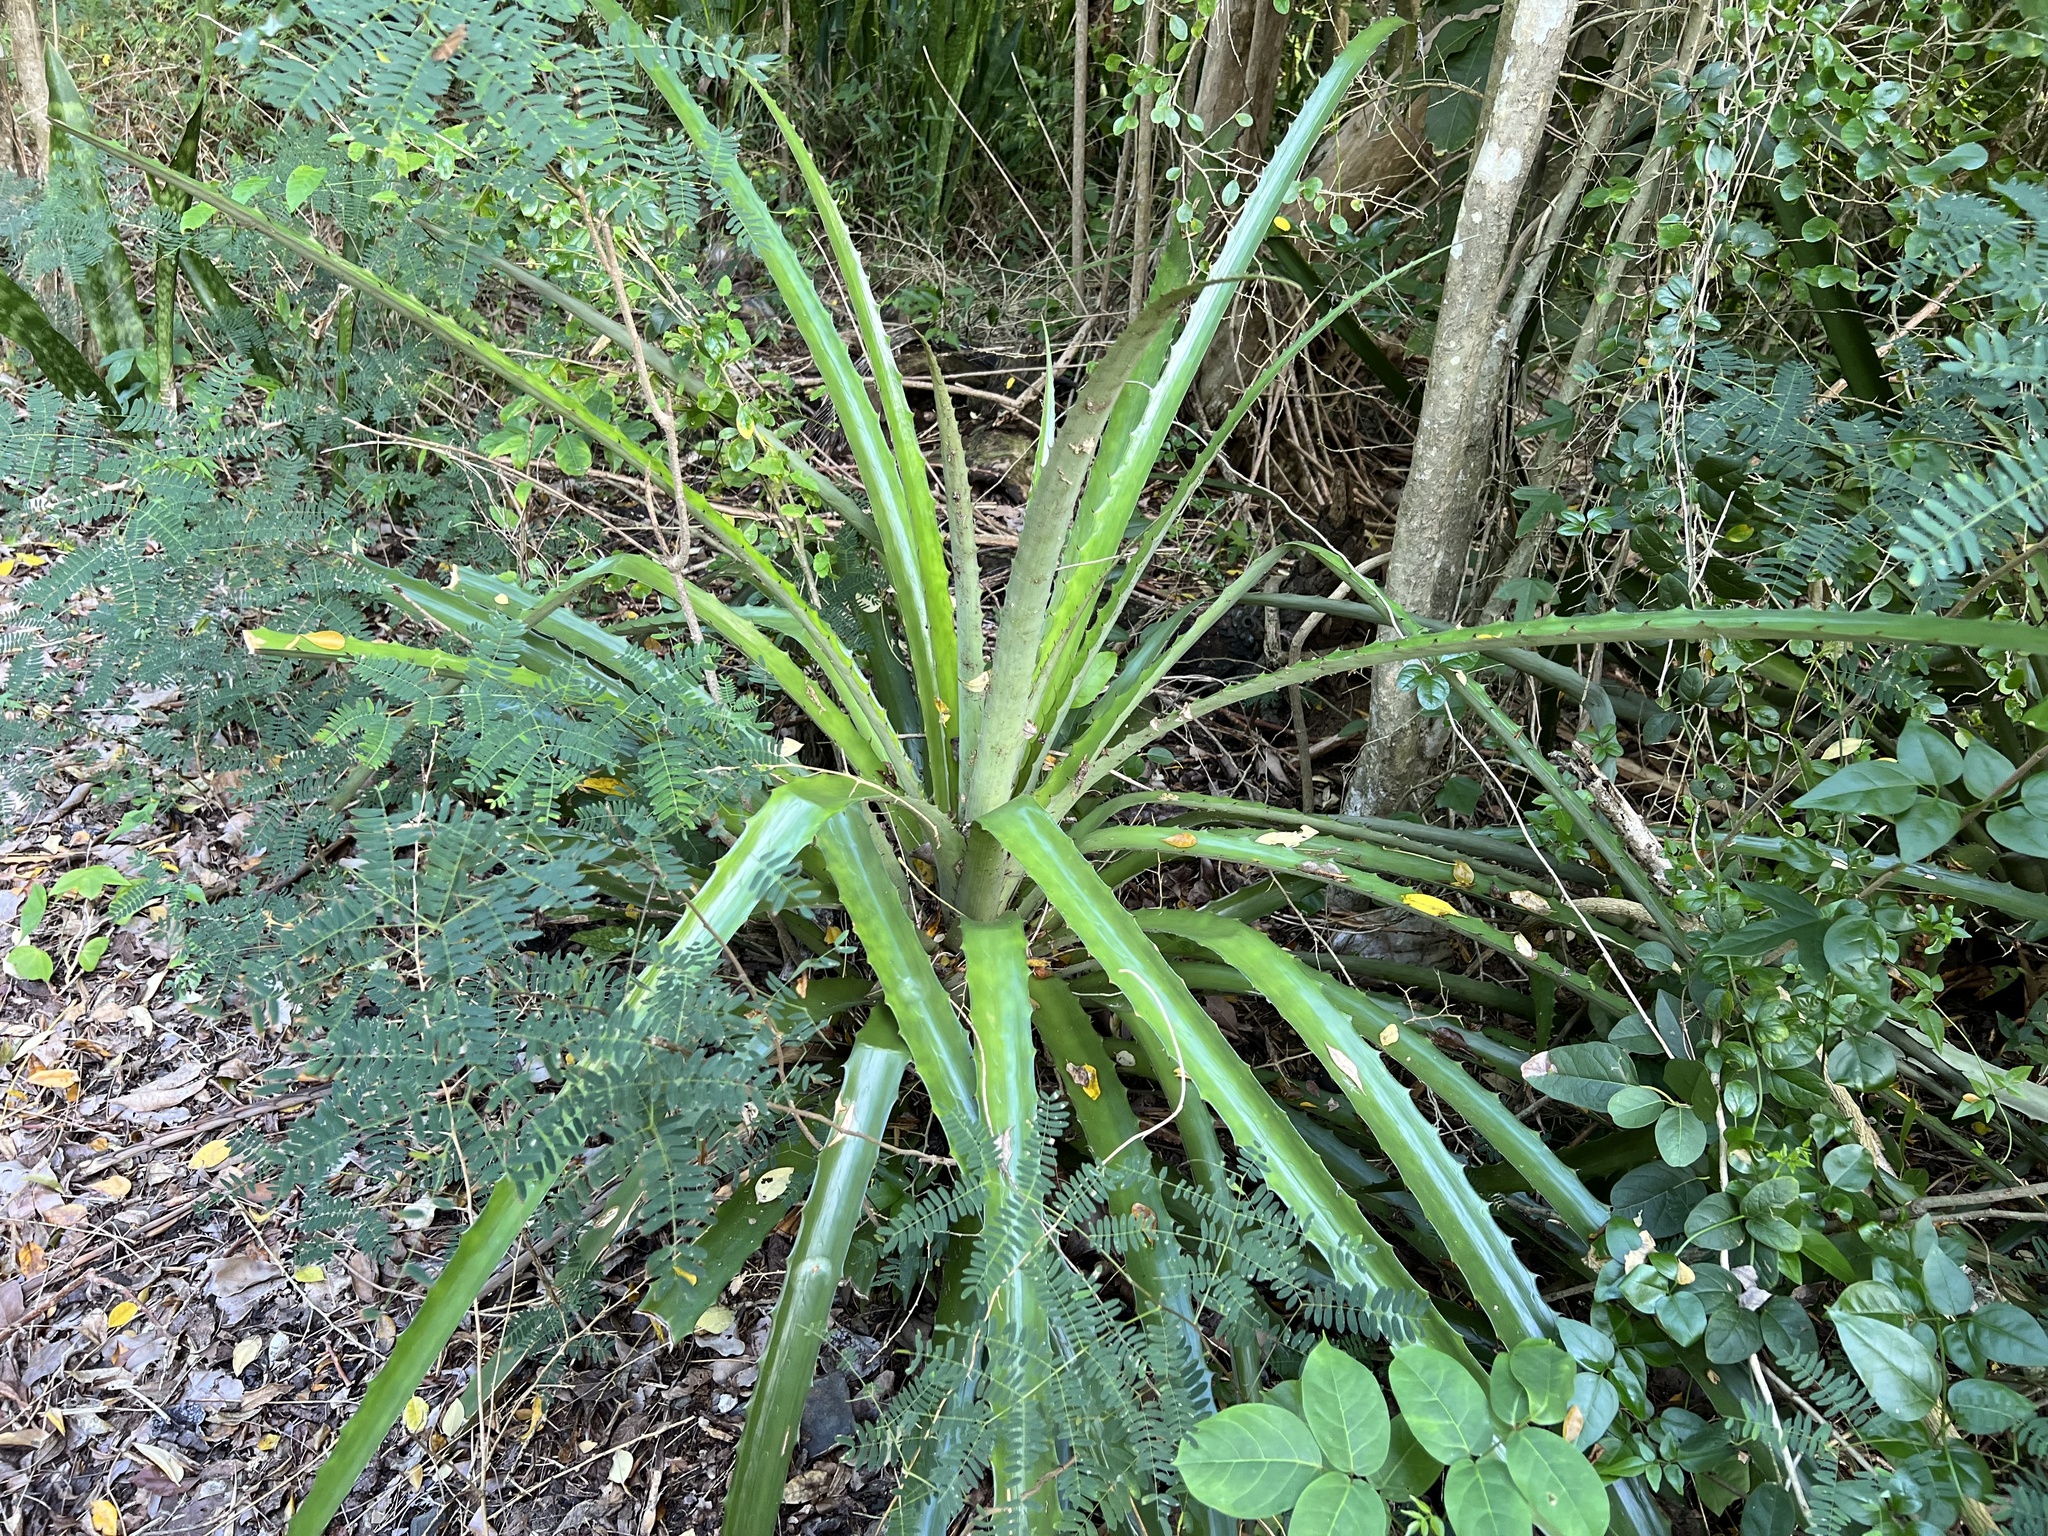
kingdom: Plantae
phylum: Tracheophyta
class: Liliopsida
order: Poales
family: Bromeliaceae
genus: Bromelia
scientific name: Bromelia pinguin
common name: Pinguin
